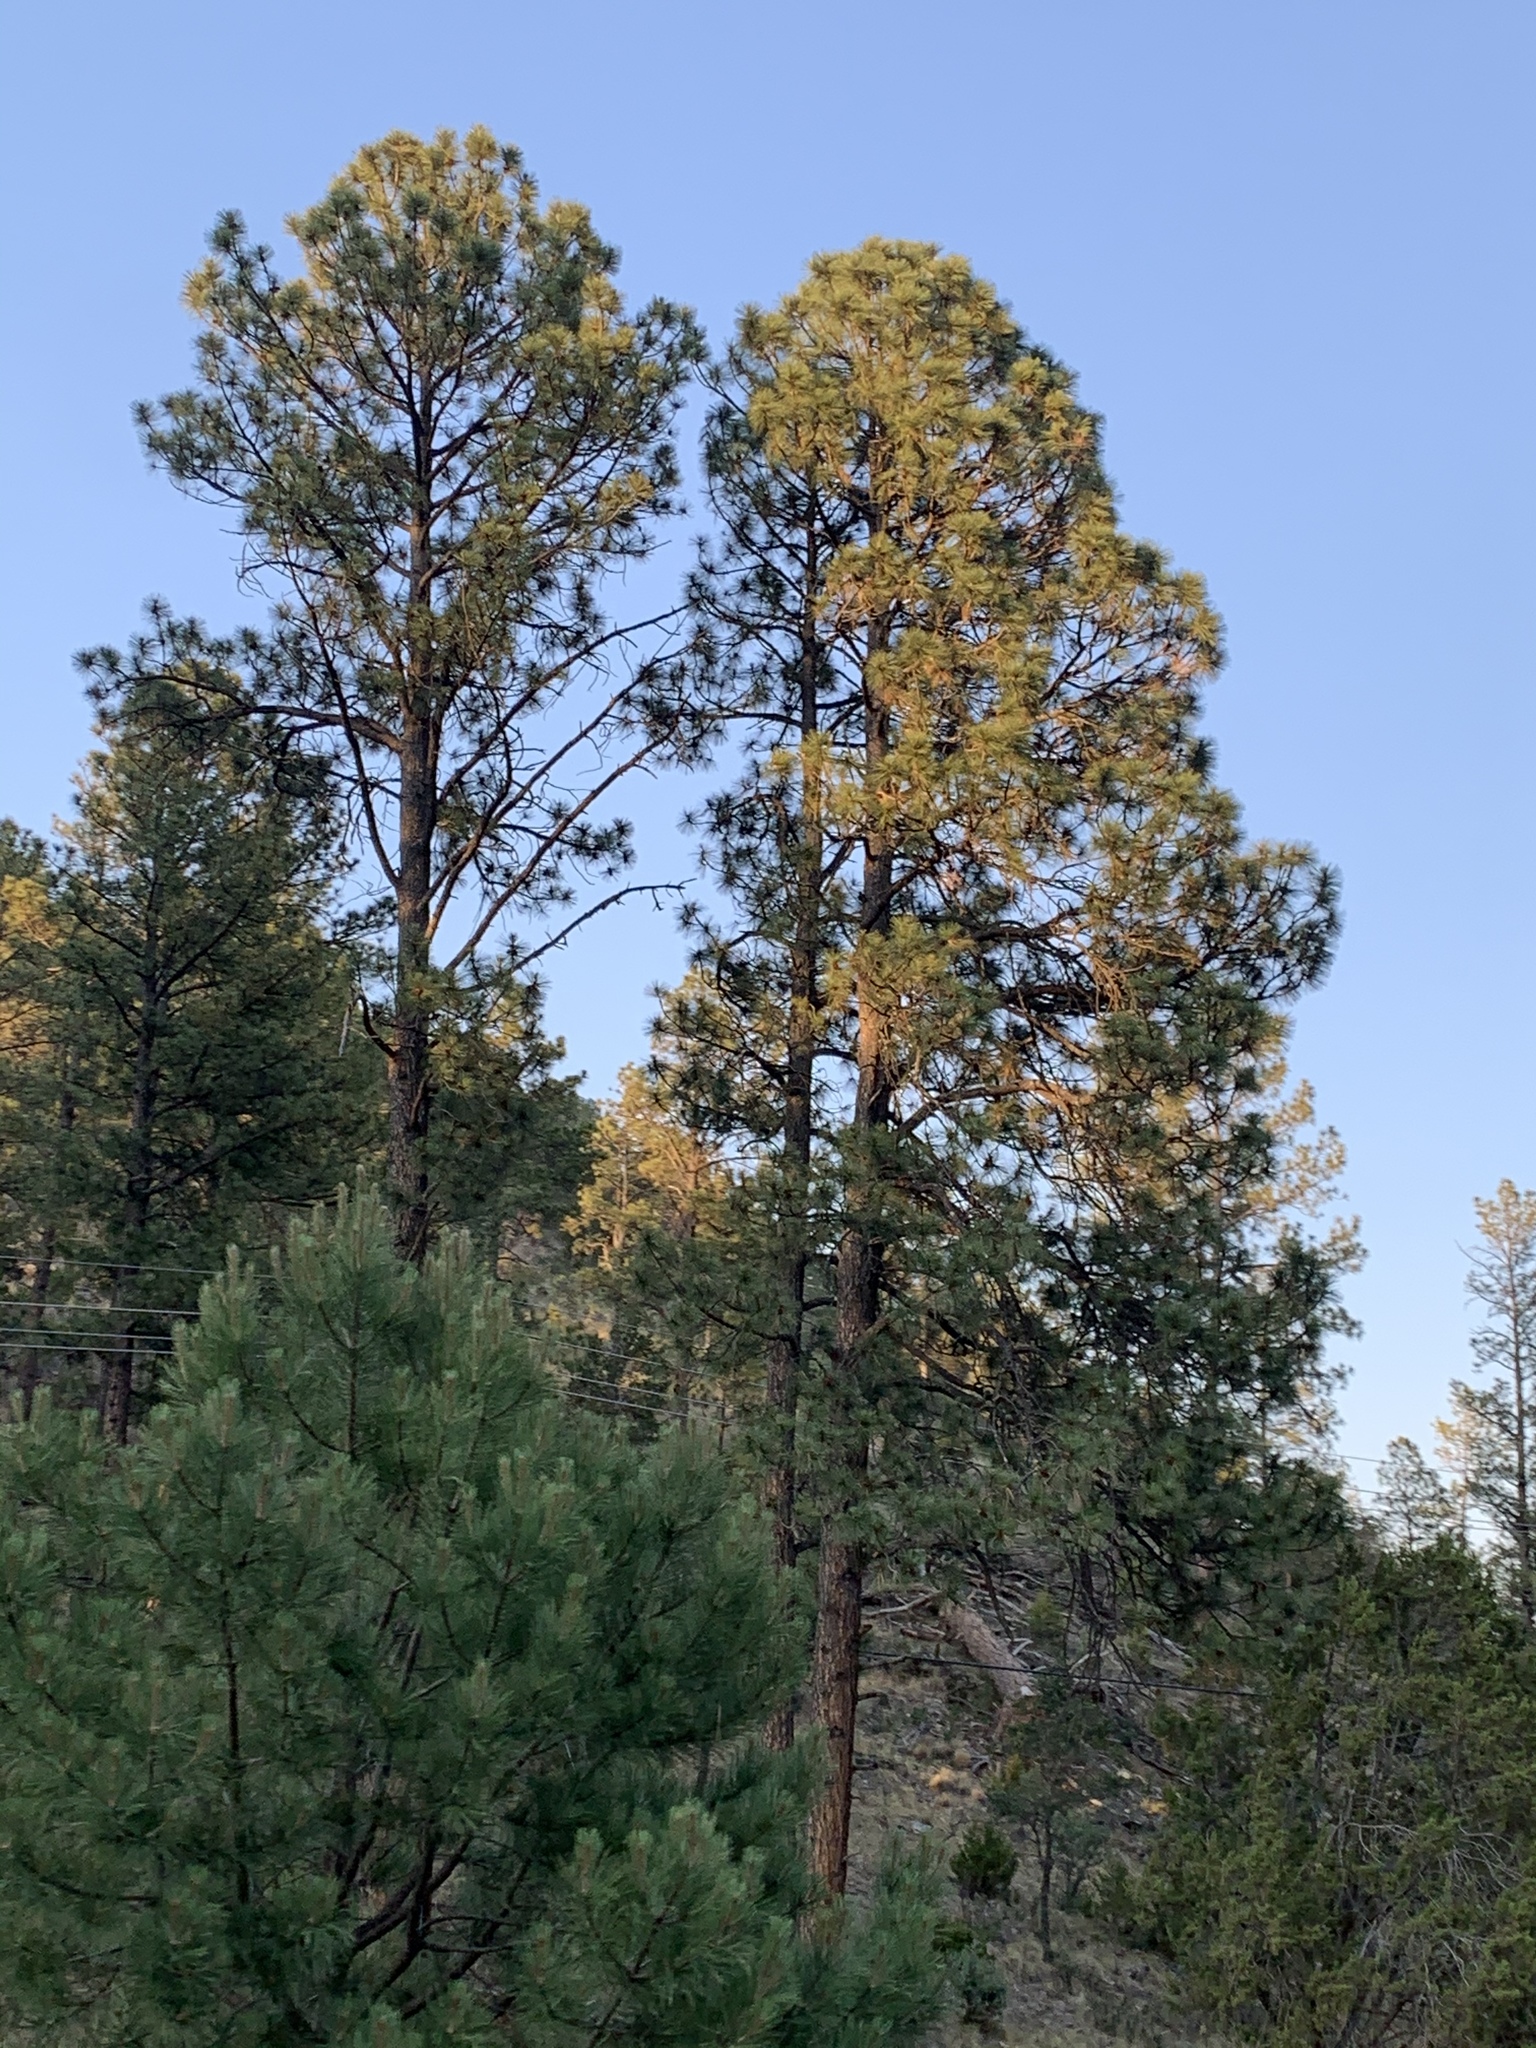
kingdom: Plantae
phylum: Tracheophyta
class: Pinopsida
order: Pinales
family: Pinaceae
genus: Pinus
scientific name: Pinus ponderosa
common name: Western yellow-pine
